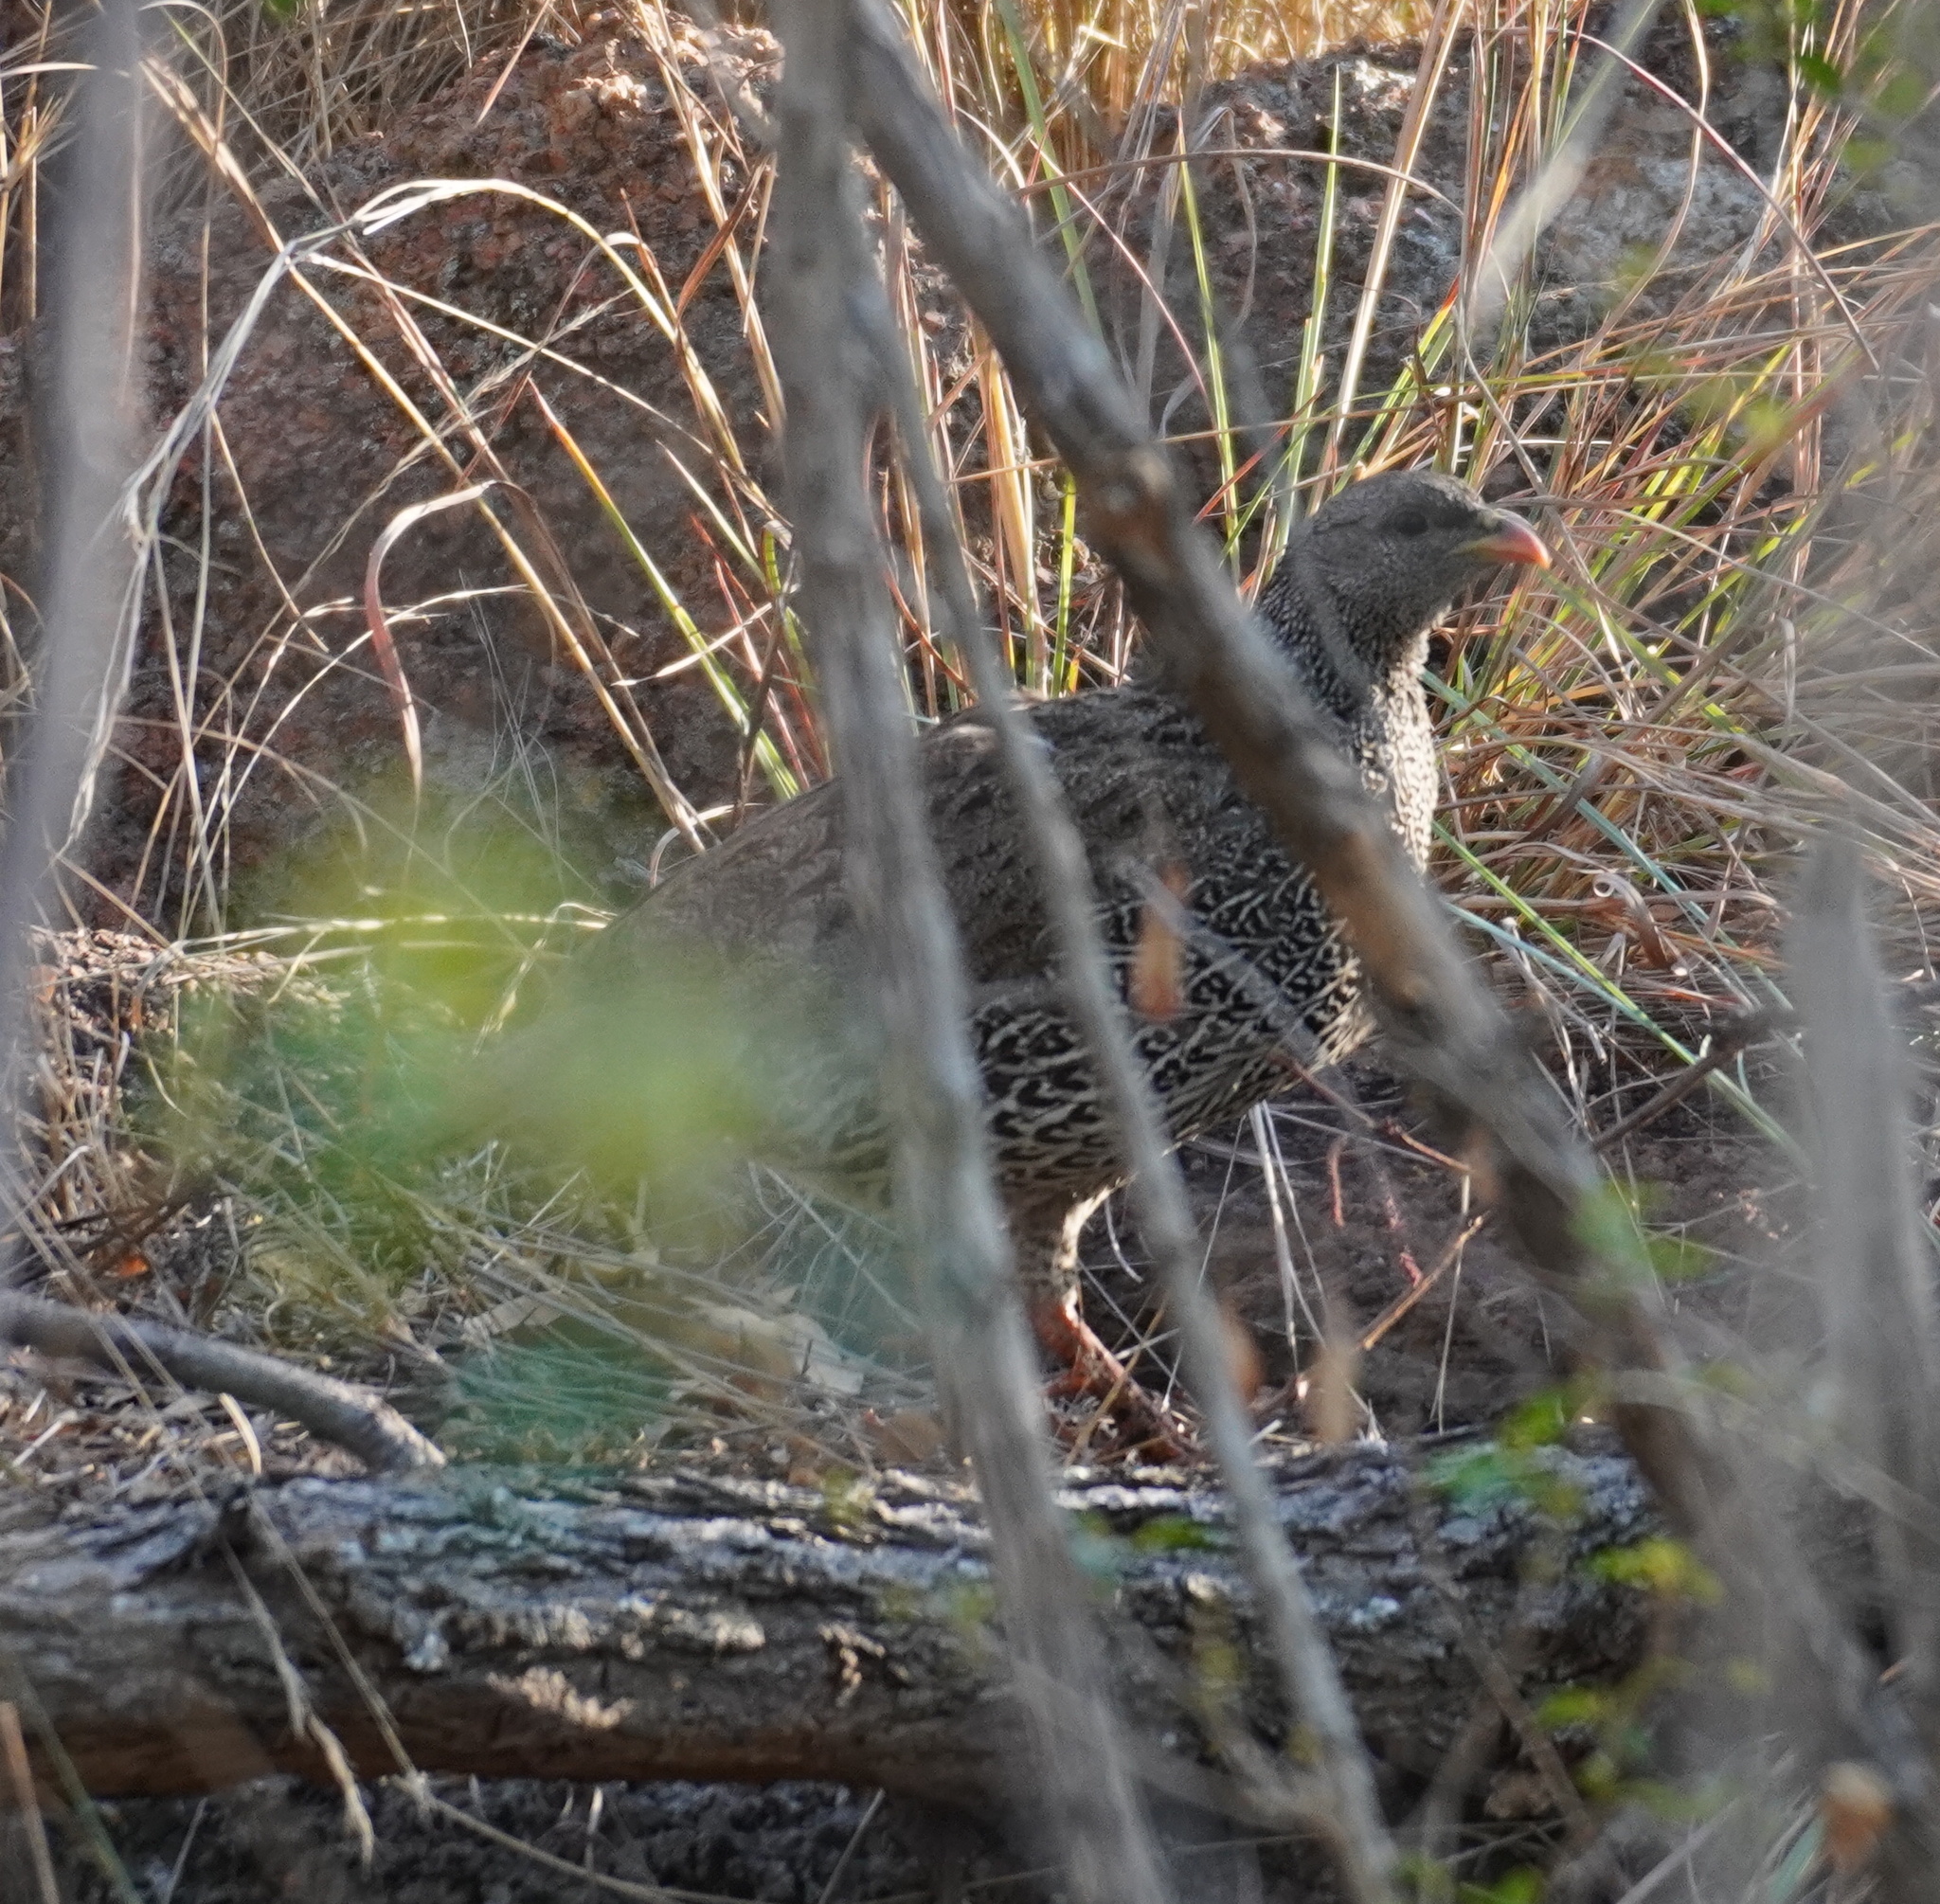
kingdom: Animalia
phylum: Chordata
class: Aves
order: Galliformes
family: Phasianidae
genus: Pternistis
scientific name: Pternistis natalensis
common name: Natal spurfowl
